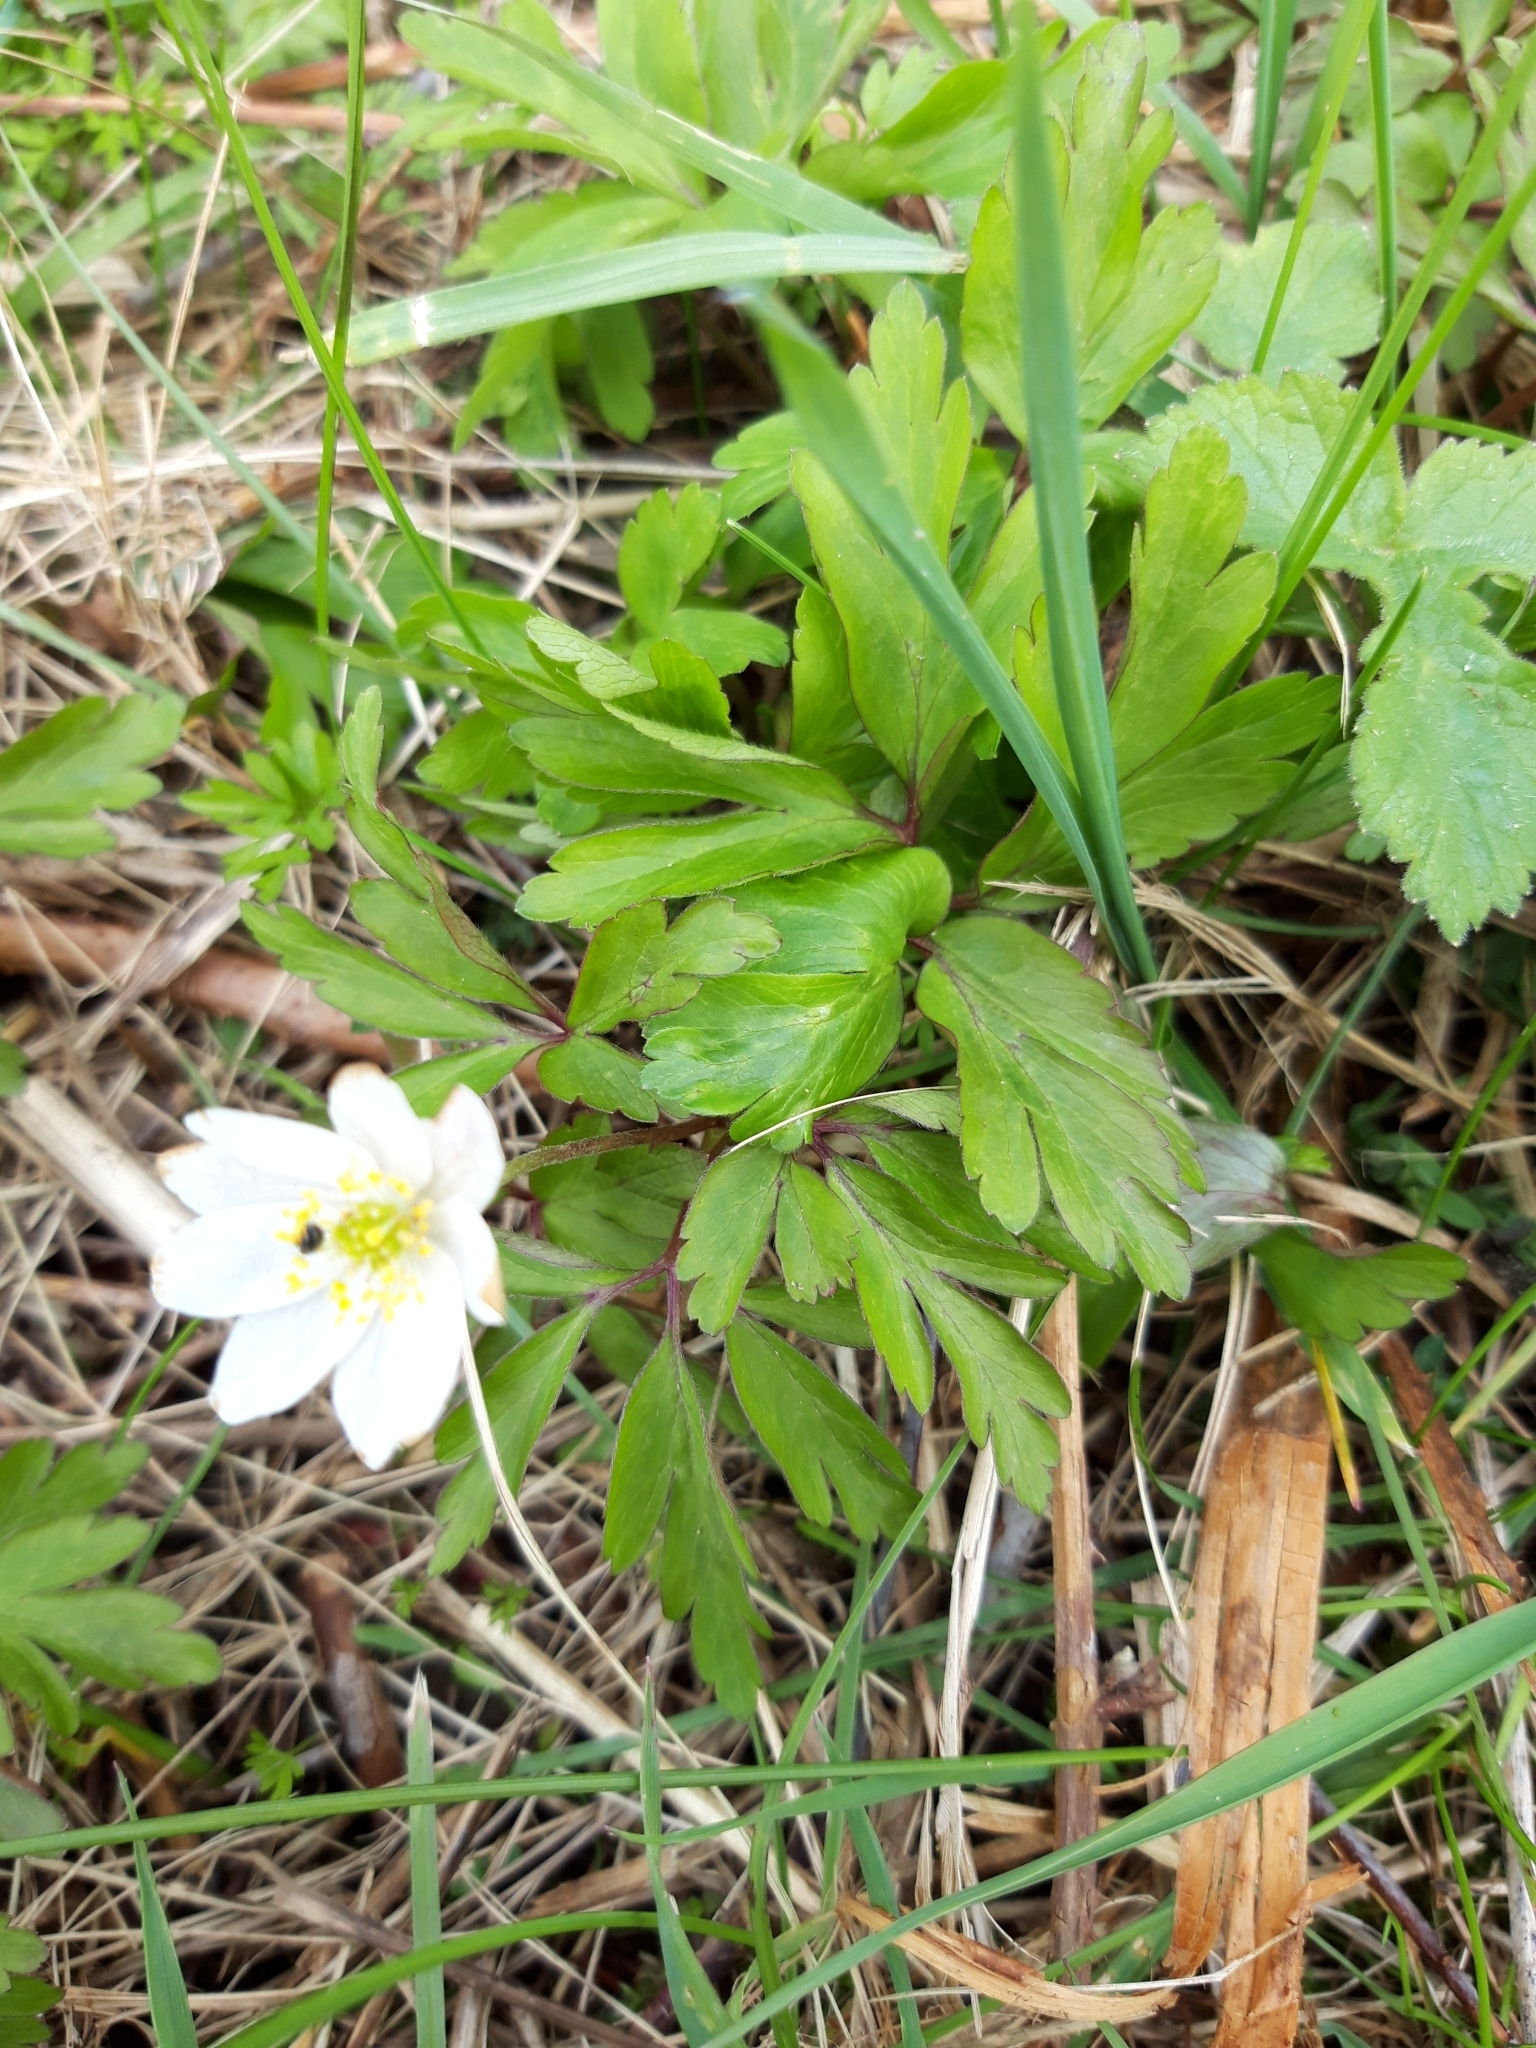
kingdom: Plantae
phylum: Tracheophyta
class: Magnoliopsida
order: Ranunculales
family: Ranunculaceae
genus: Anemone
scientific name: Anemone nemorosa
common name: Wood anemone
